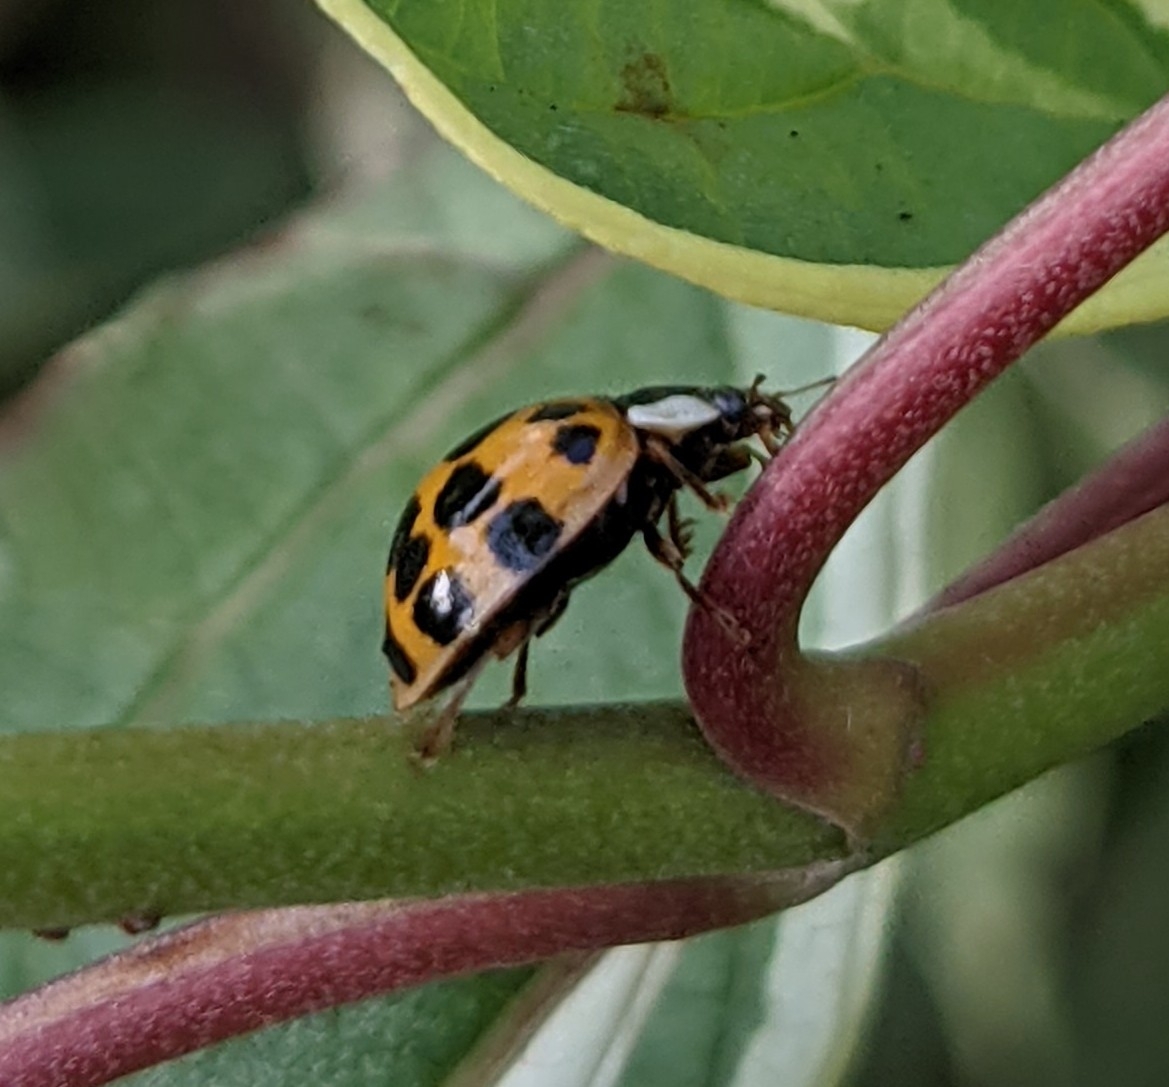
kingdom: Animalia
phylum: Arthropoda
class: Insecta
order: Coleoptera
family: Coccinellidae
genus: Harmonia
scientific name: Harmonia axyridis
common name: Harlequin ladybird
